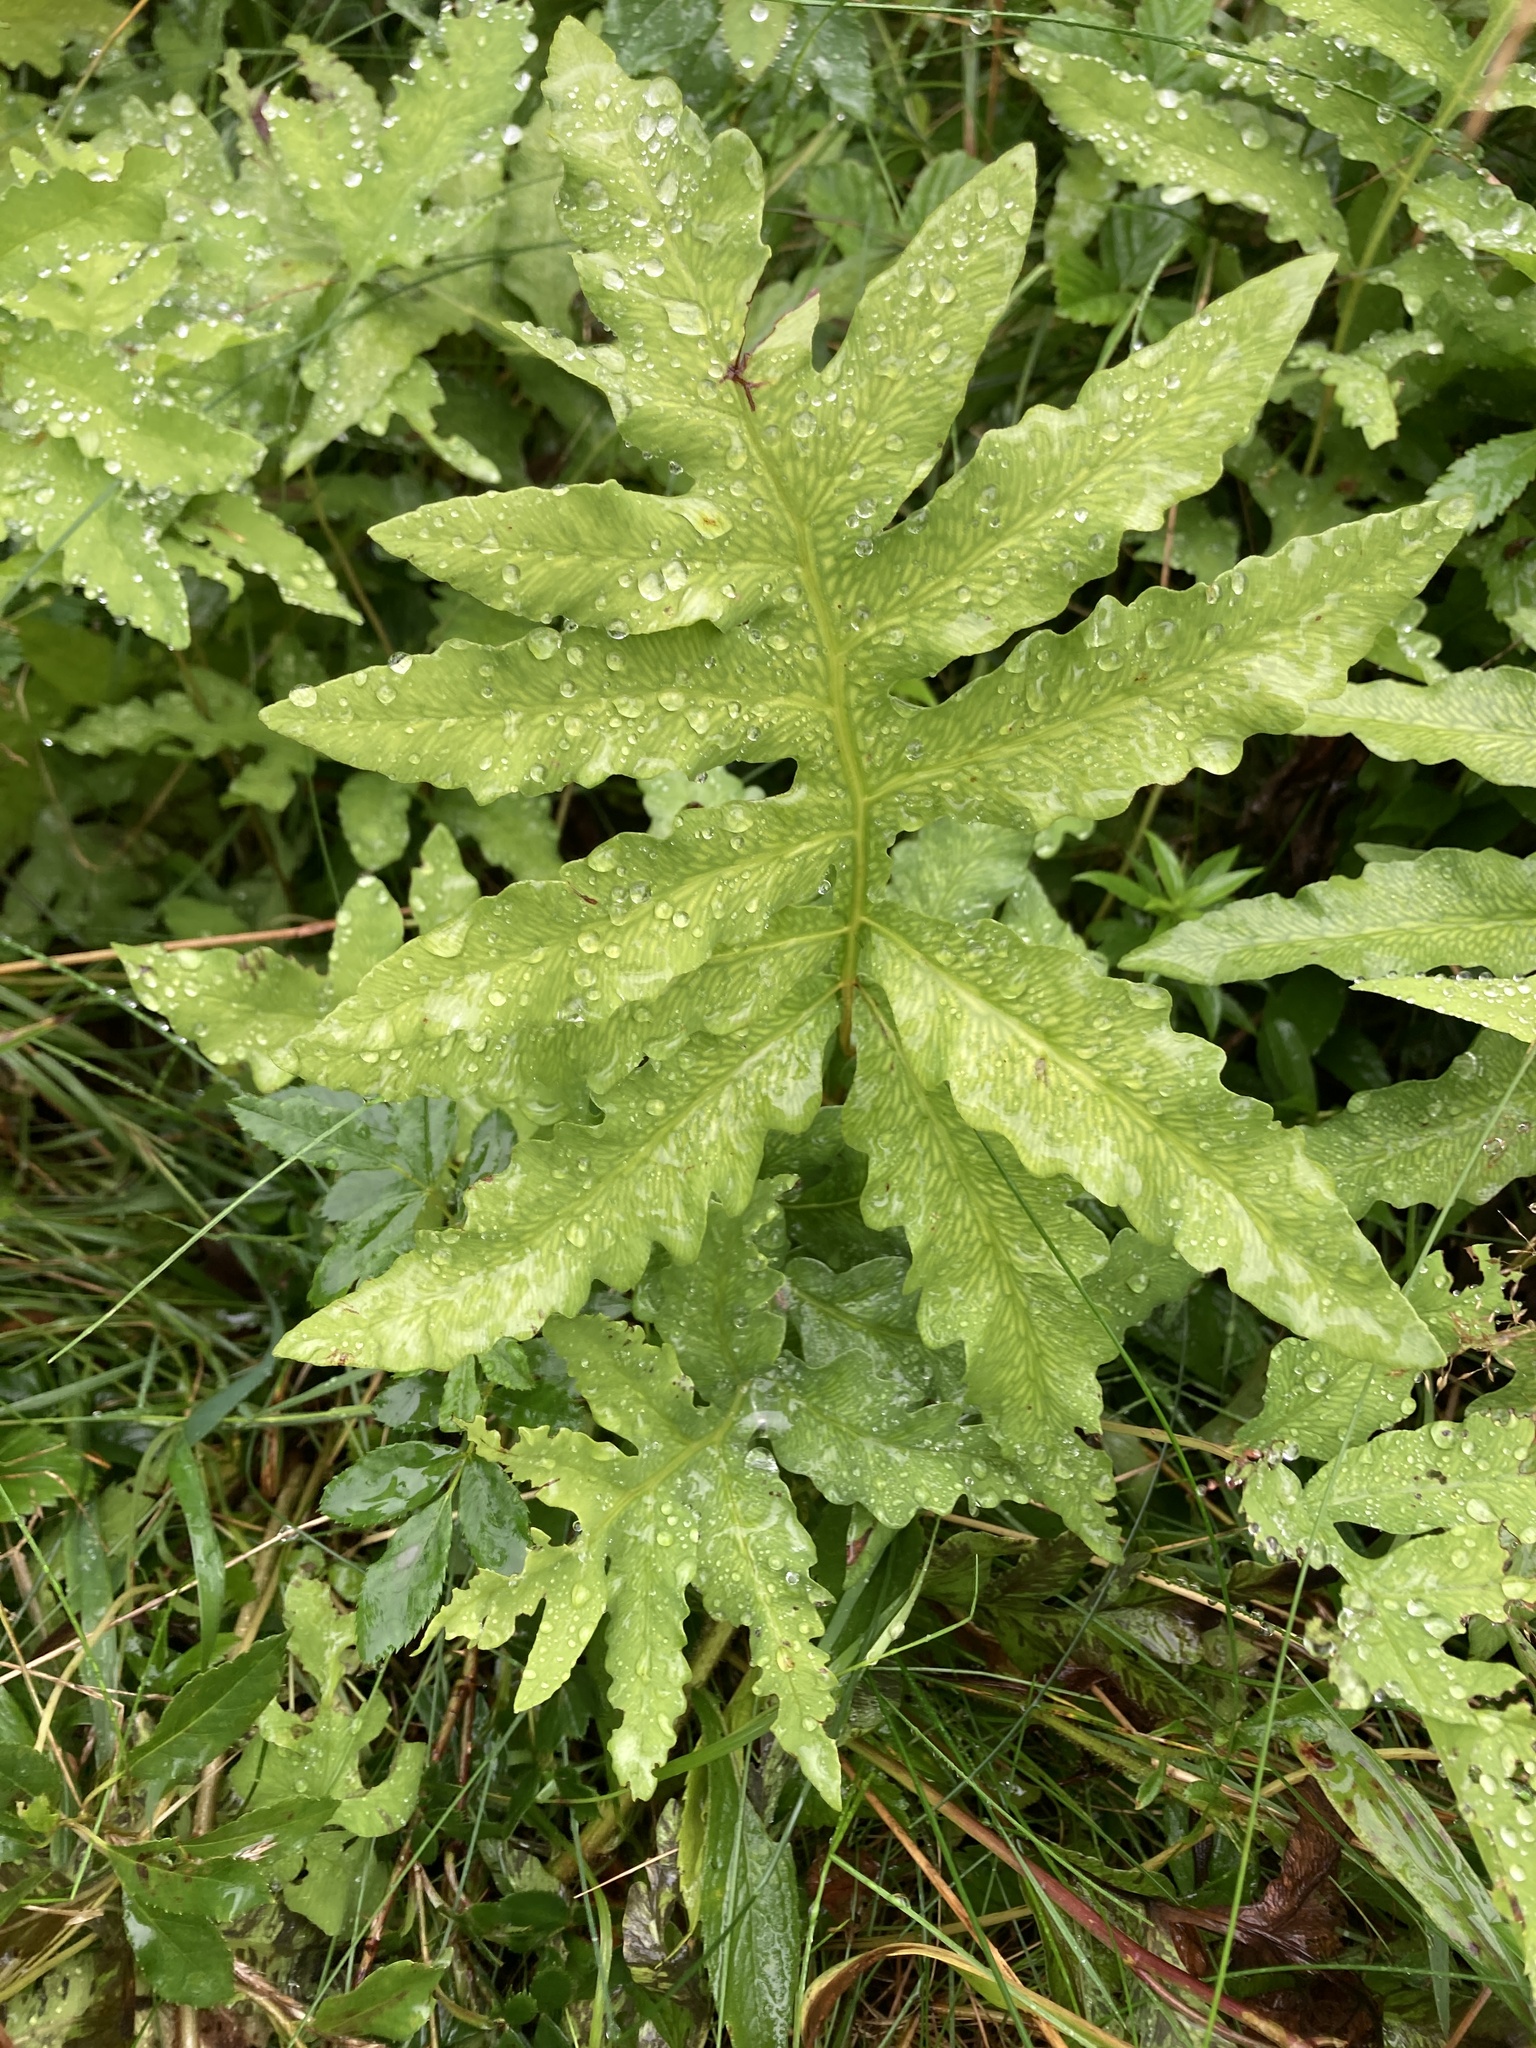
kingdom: Plantae
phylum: Tracheophyta
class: Polypodiopsida
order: Polypodiales
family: Onocleaceae
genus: Onoclea
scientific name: Onoclea sensibilis
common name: Sensitive fern
